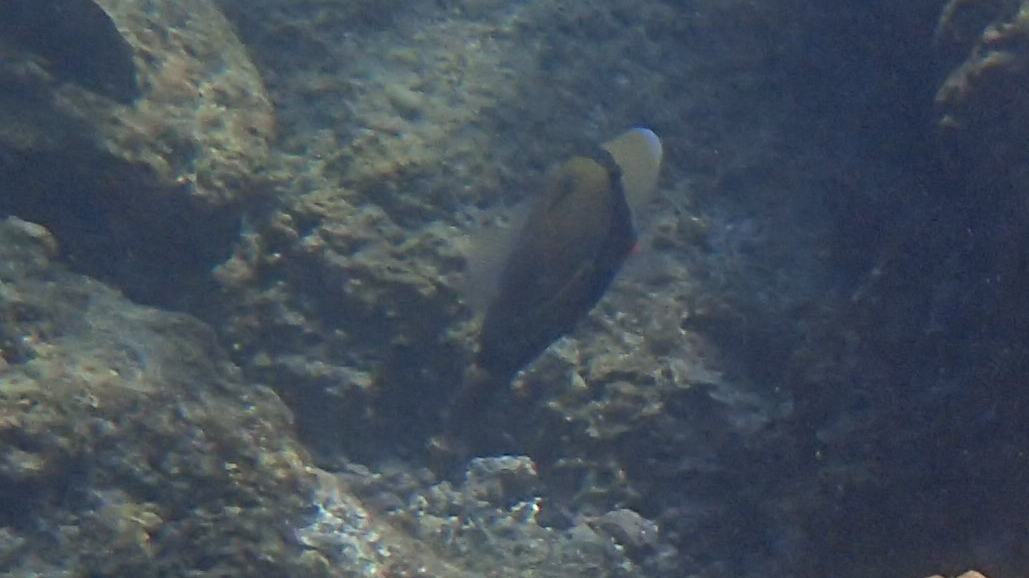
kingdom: Animalia
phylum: Chordata
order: Tetraodontiformes
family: Balistidae
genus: Rhinecanthus
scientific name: Rhinecanthus rectangulus
